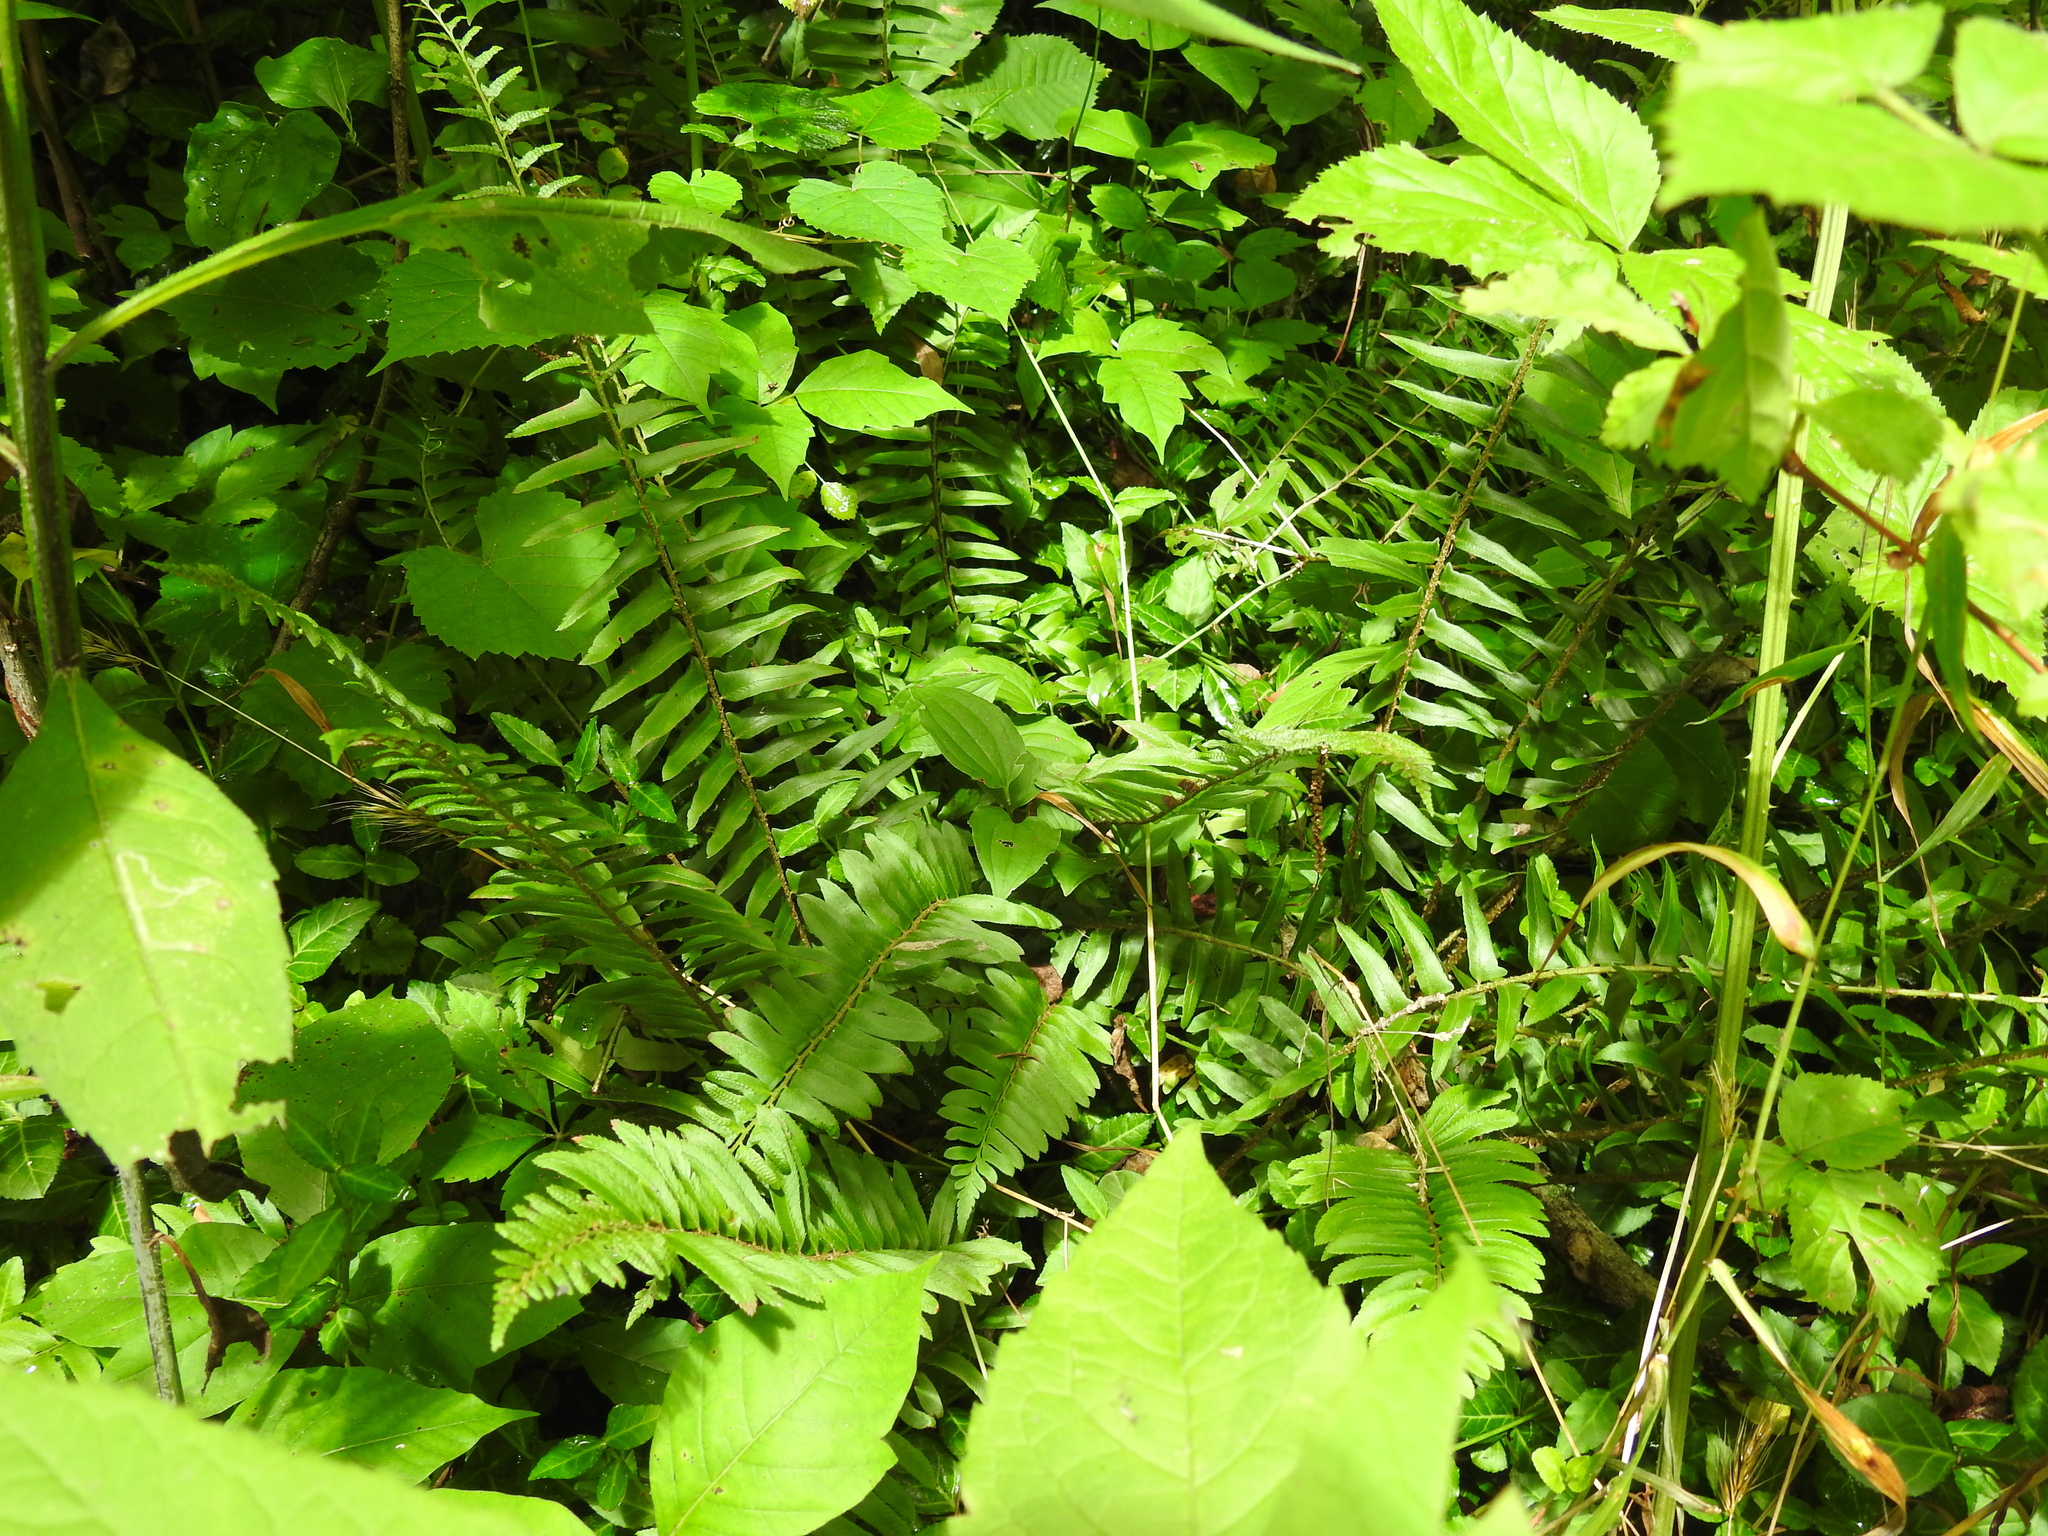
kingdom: Plantae
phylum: Tracheophyta
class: Polypodiopsida
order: Polypodiales
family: Dryopteridaceae
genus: Polystichum
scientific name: Polystichum acrostichoides
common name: Christmas fern
